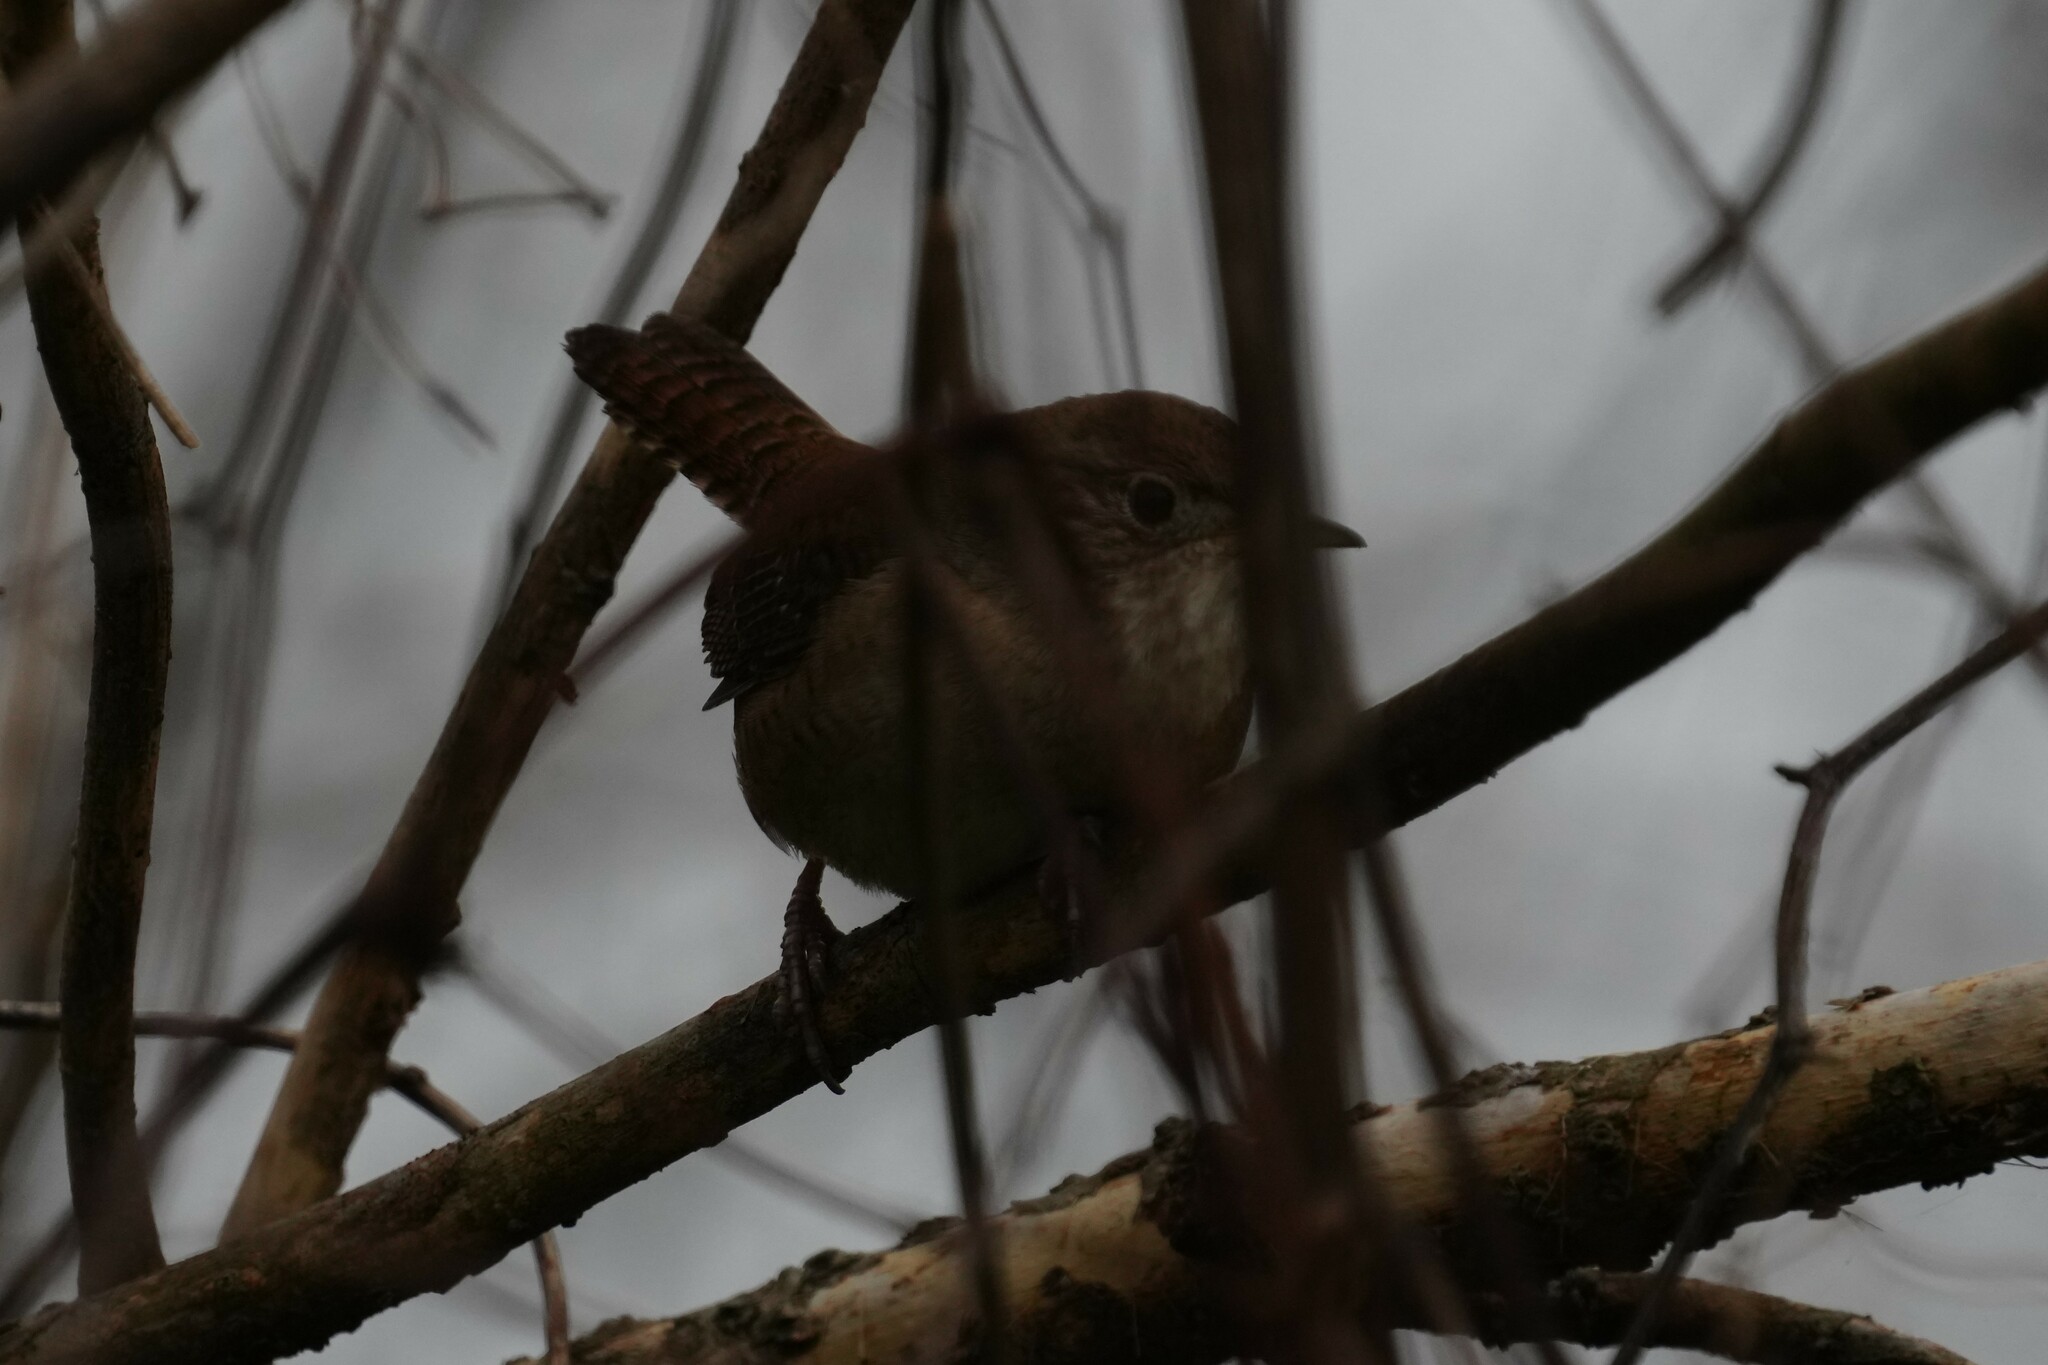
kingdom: Animalia
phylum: Chordata
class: Aves
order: Passeriformes
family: Troglodytidae
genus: Troglodytes
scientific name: Troglodytes aedon
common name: House wren
